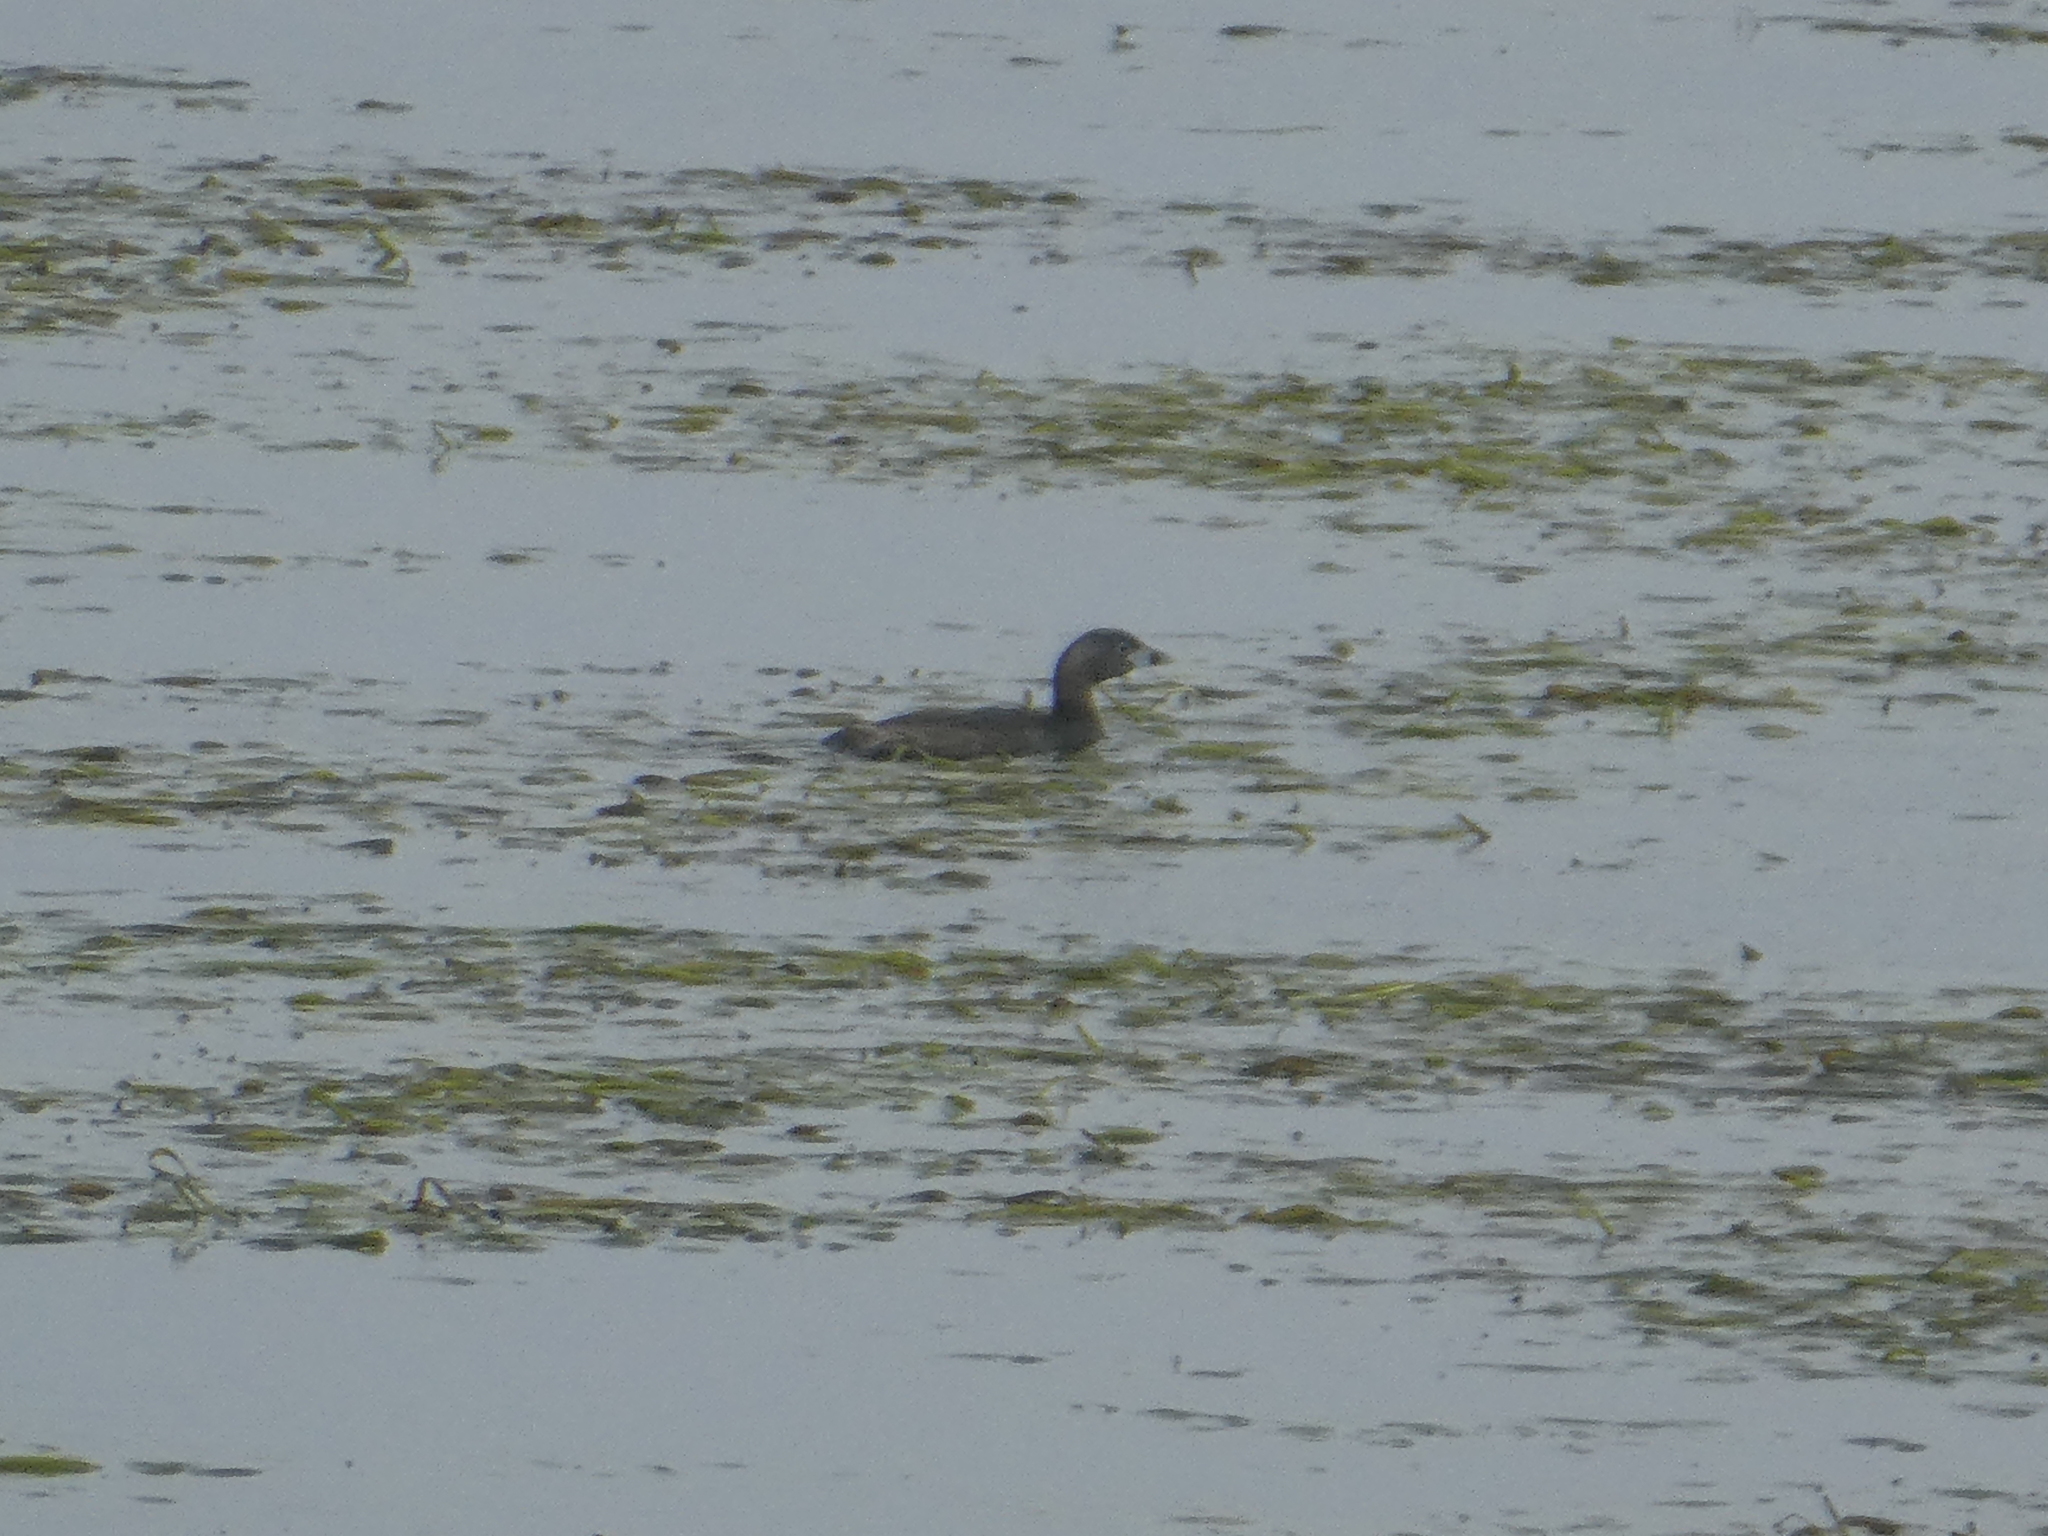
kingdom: Animalia
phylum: Chordata
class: Aves
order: Podicipediformes
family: Podicipedidae
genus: Podilymbus
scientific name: Podilymbus podiceps
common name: Pied-billed grebe
